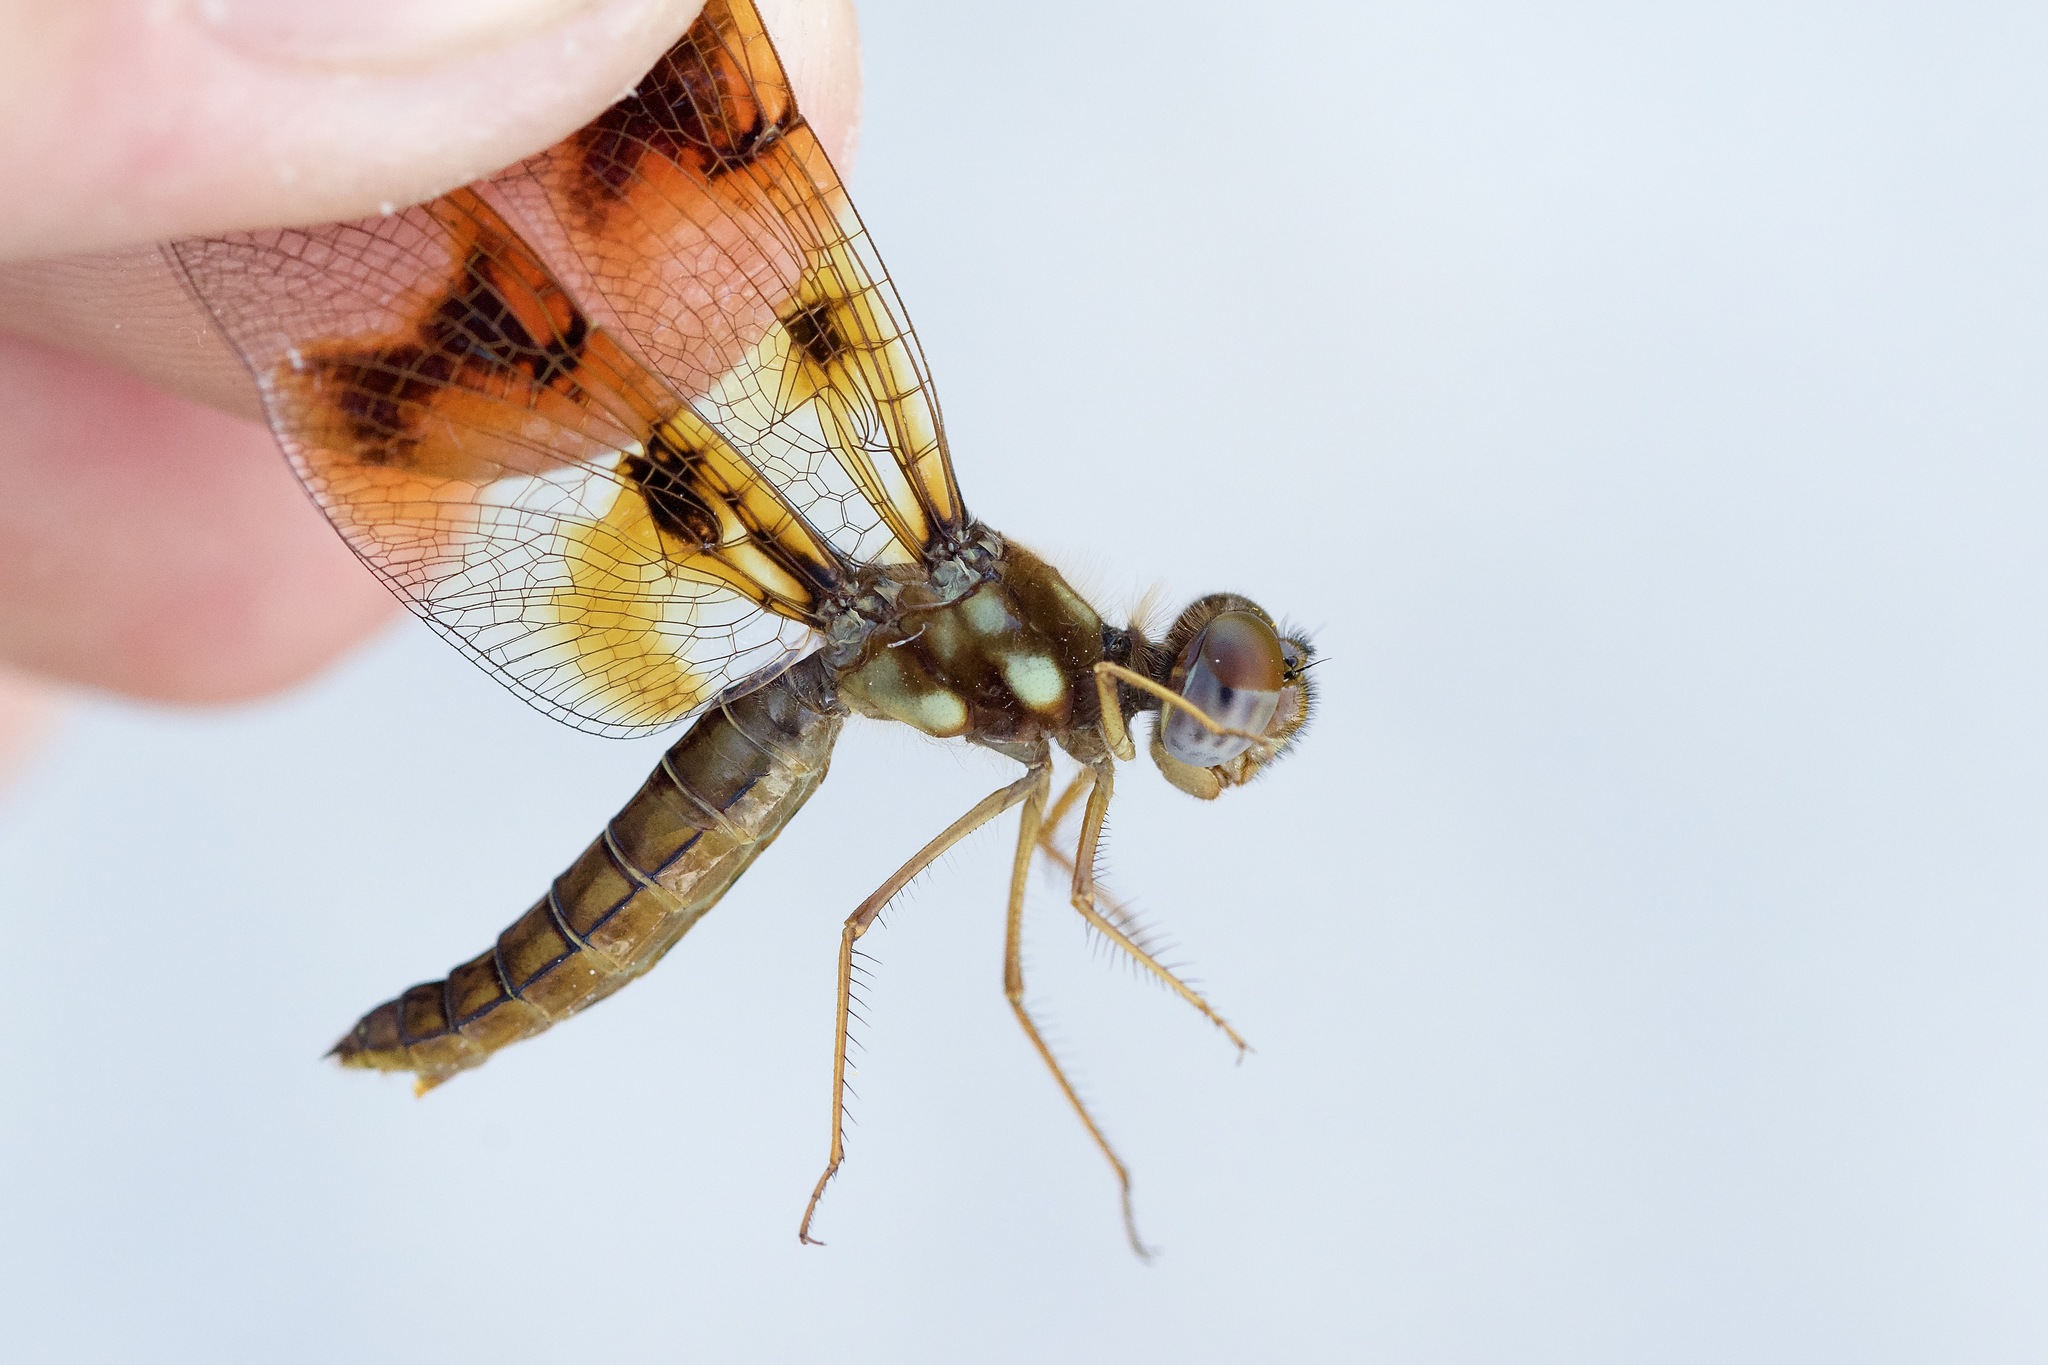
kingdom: Animalia
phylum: Arthropoda
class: Insecta
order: Odonata
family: Libellulidae
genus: Perithemis
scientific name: Perithemis tenera
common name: Eastern amberwing
